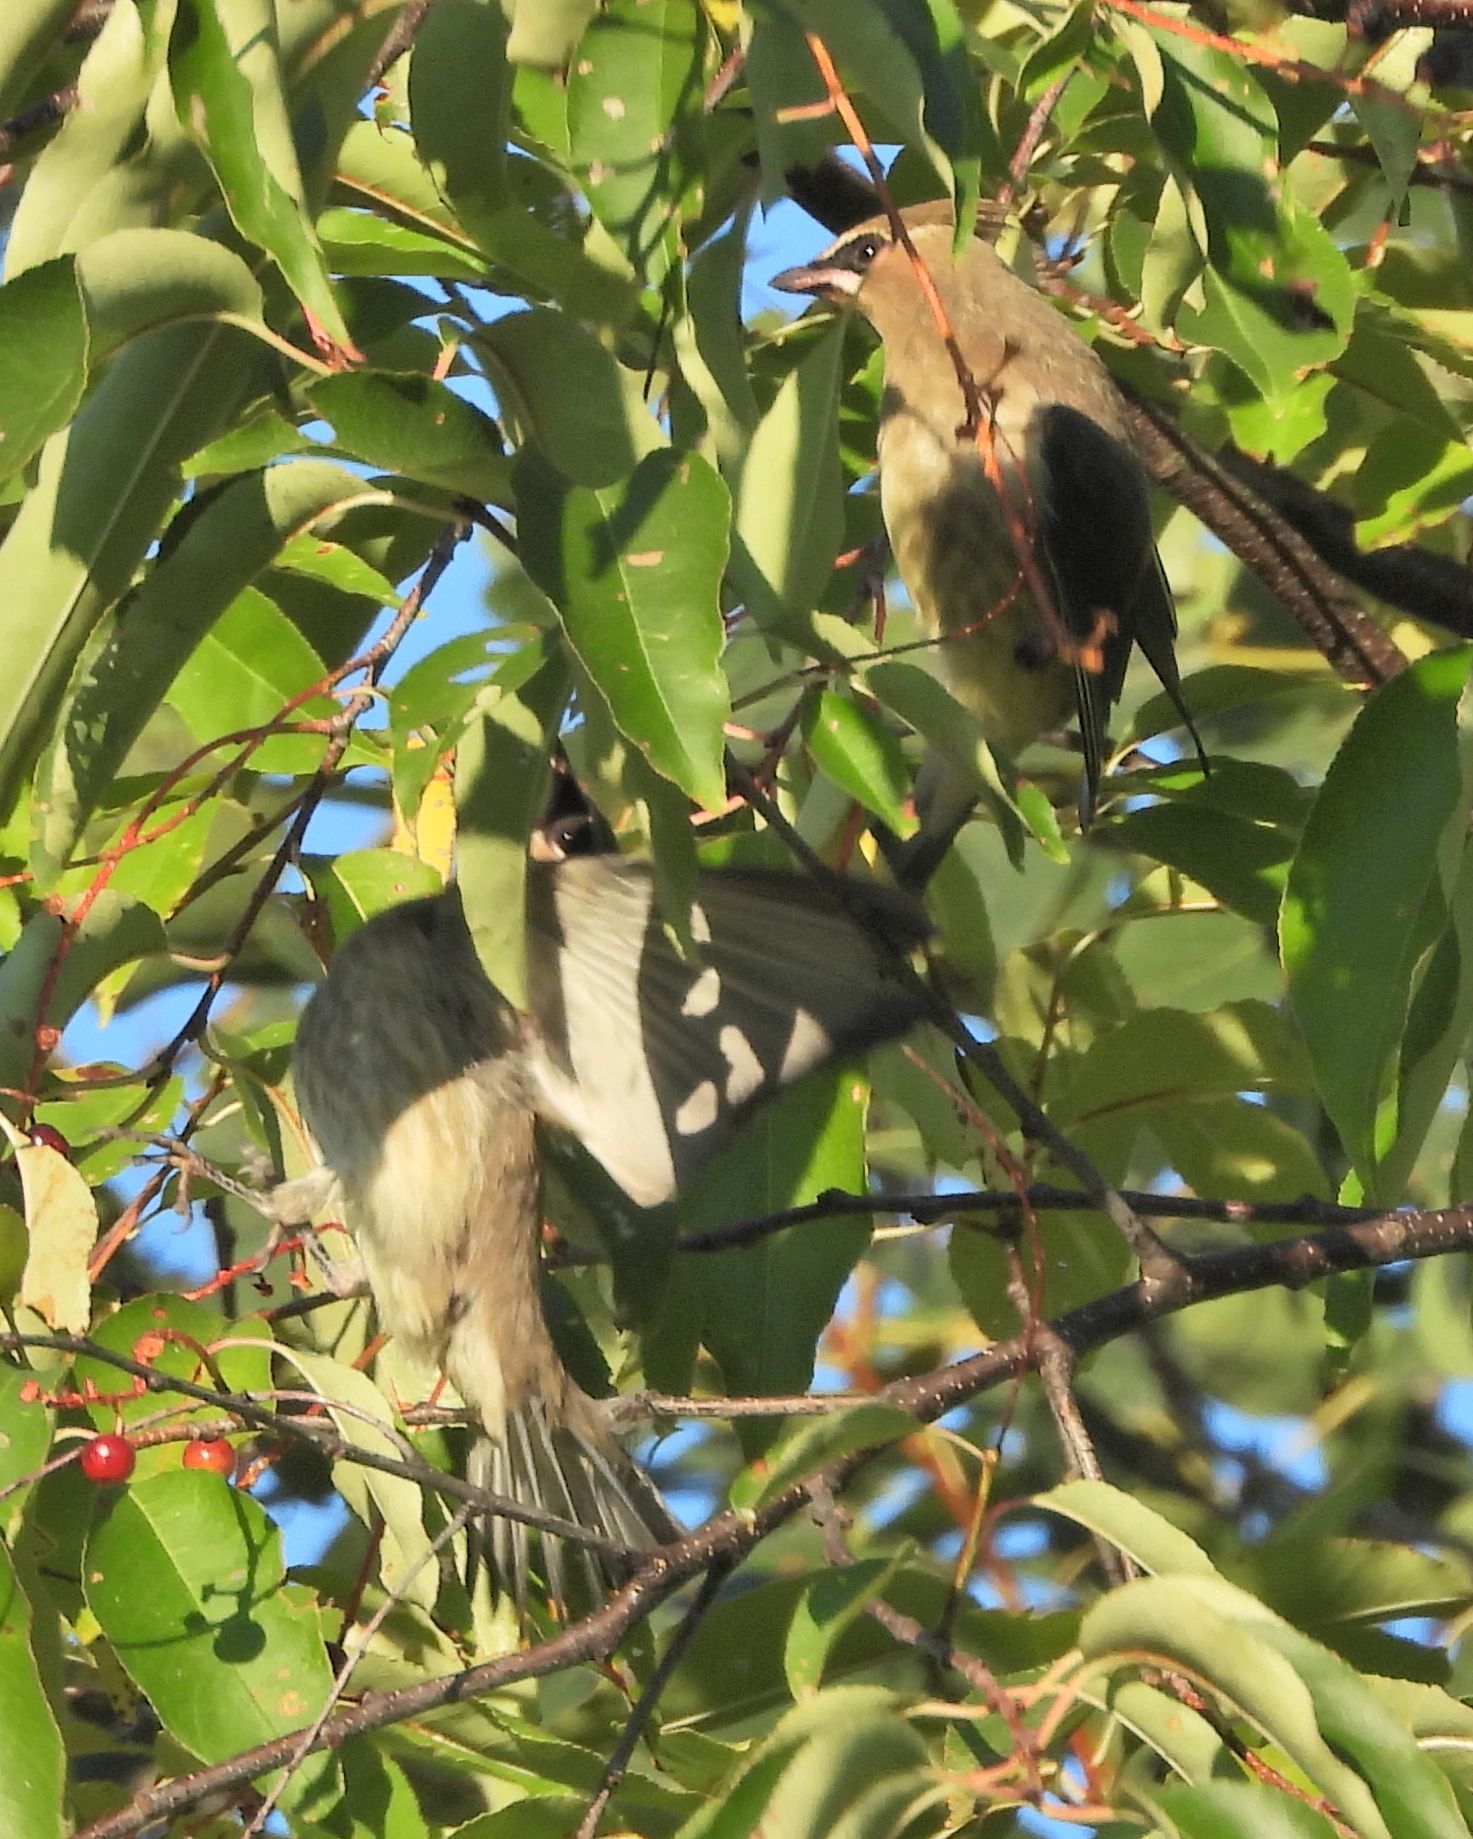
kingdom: Animalia
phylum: Chordata
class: Aves
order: Passeriformes
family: Bombycillidae
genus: Bombycilla
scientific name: Bombycilla cedrorum
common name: Cedar waxwing
